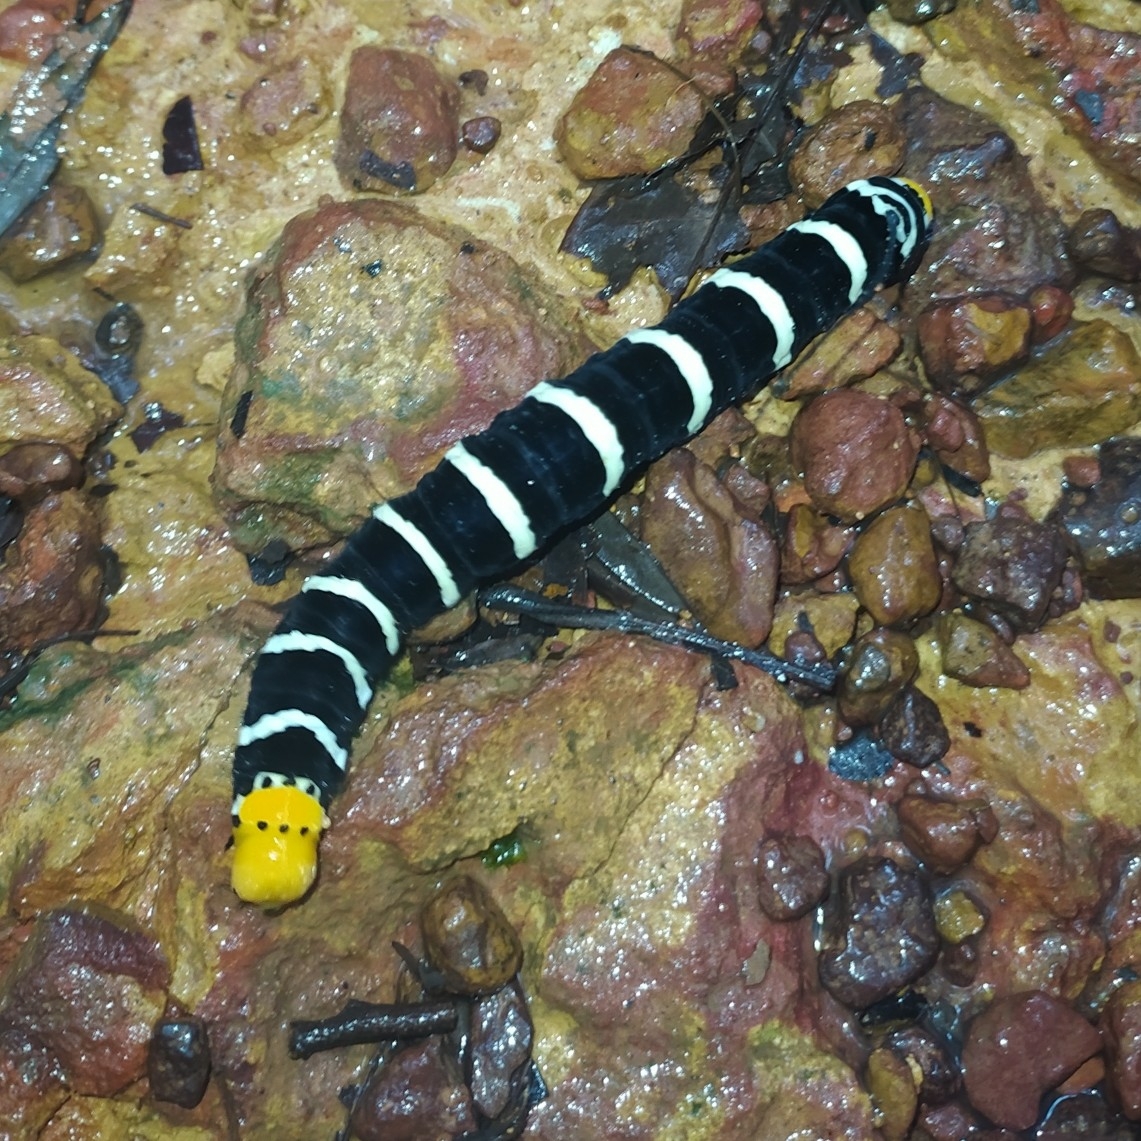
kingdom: Animalia
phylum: Arthropoda
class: Insecta
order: Lepidoptera
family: Sphingidae
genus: Isognathus
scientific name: Isognathus swainsoni
